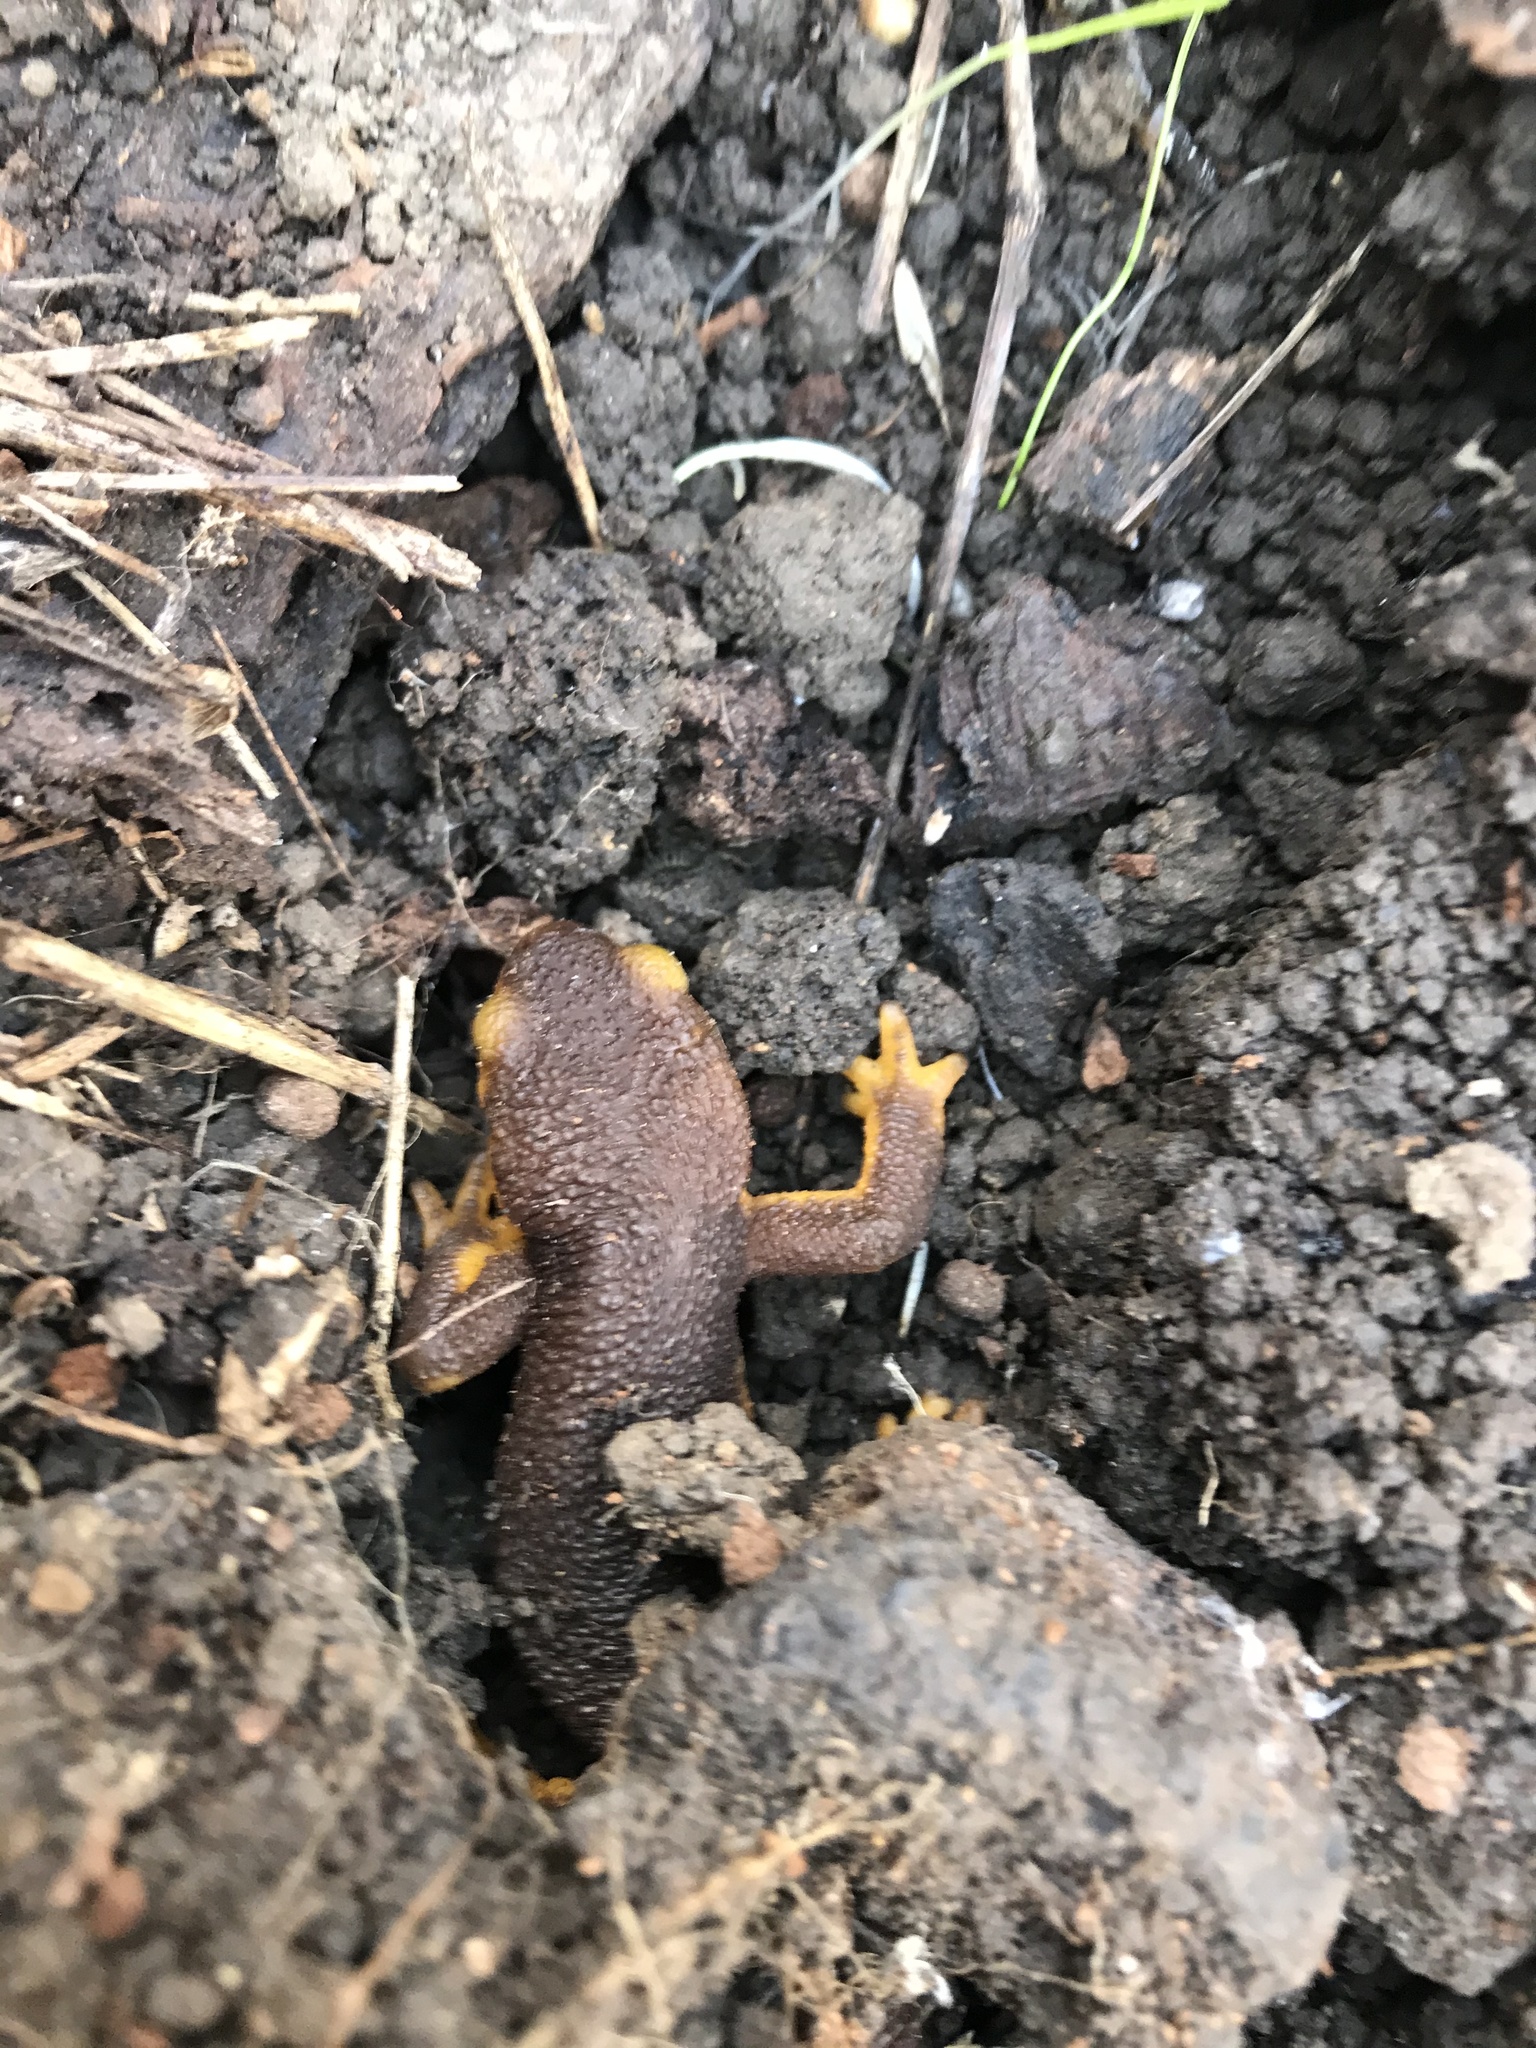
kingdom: Animalia
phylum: Chordata
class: Amphibia
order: Caudata
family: Salamandridae
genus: Taricha
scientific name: Taricha torosa
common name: California newt
